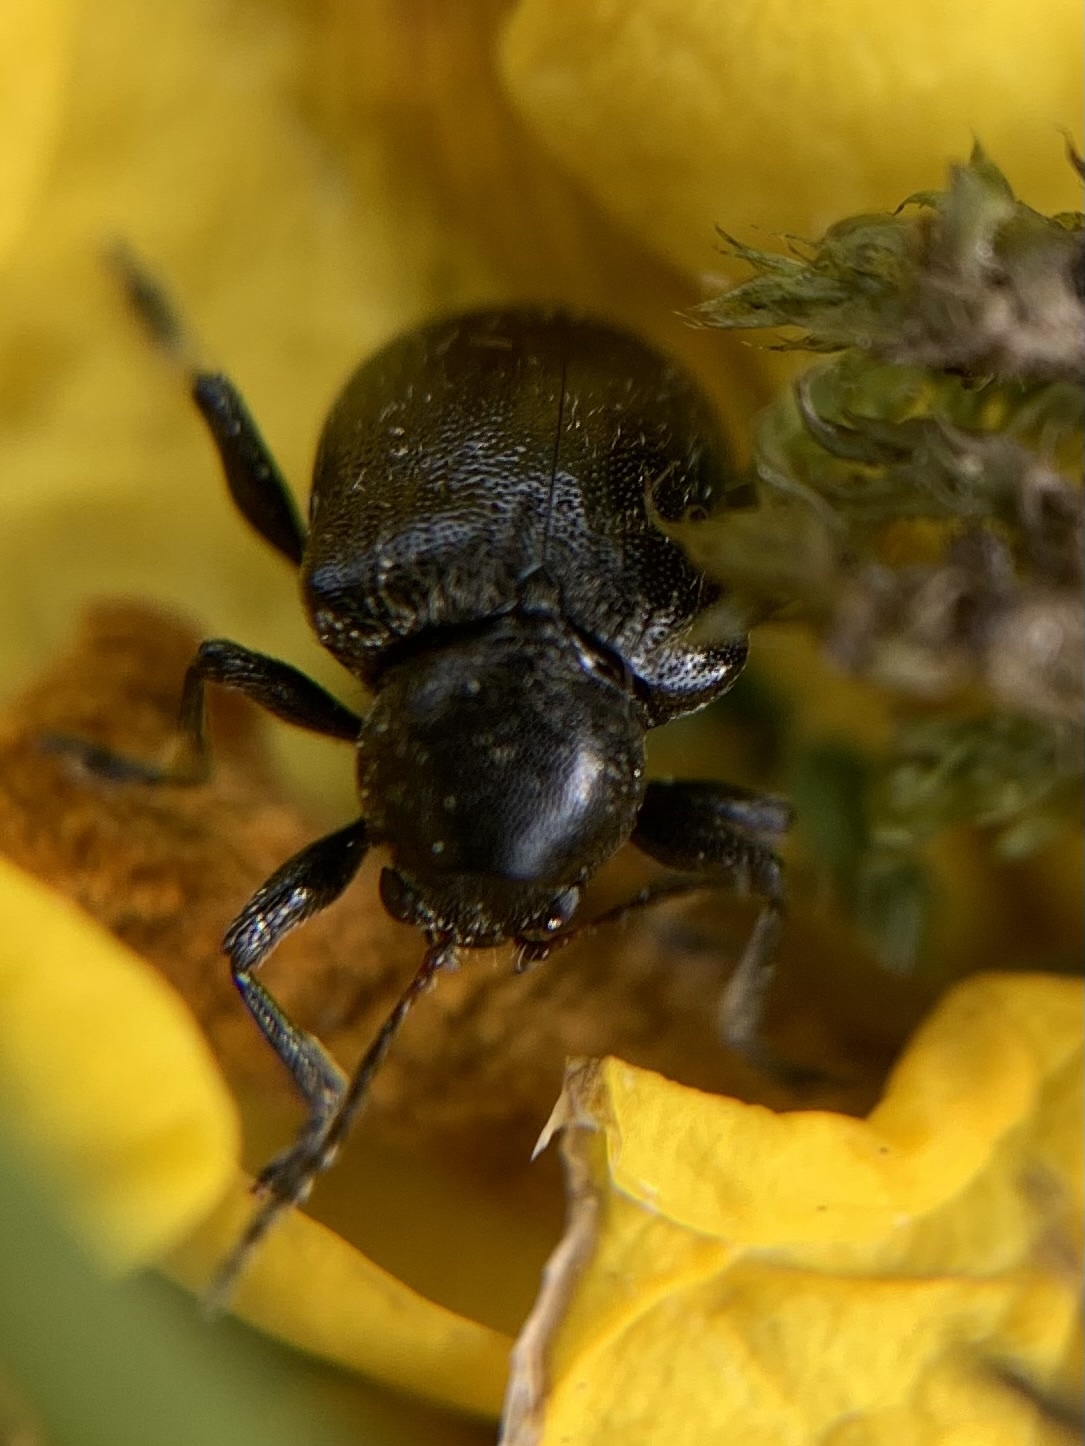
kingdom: Animalia
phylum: Arthropoda
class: Insecta
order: Coleoptera
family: Chrysomelidae
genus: Bromius
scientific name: Bromius obscurus
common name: Western grape rootworm
